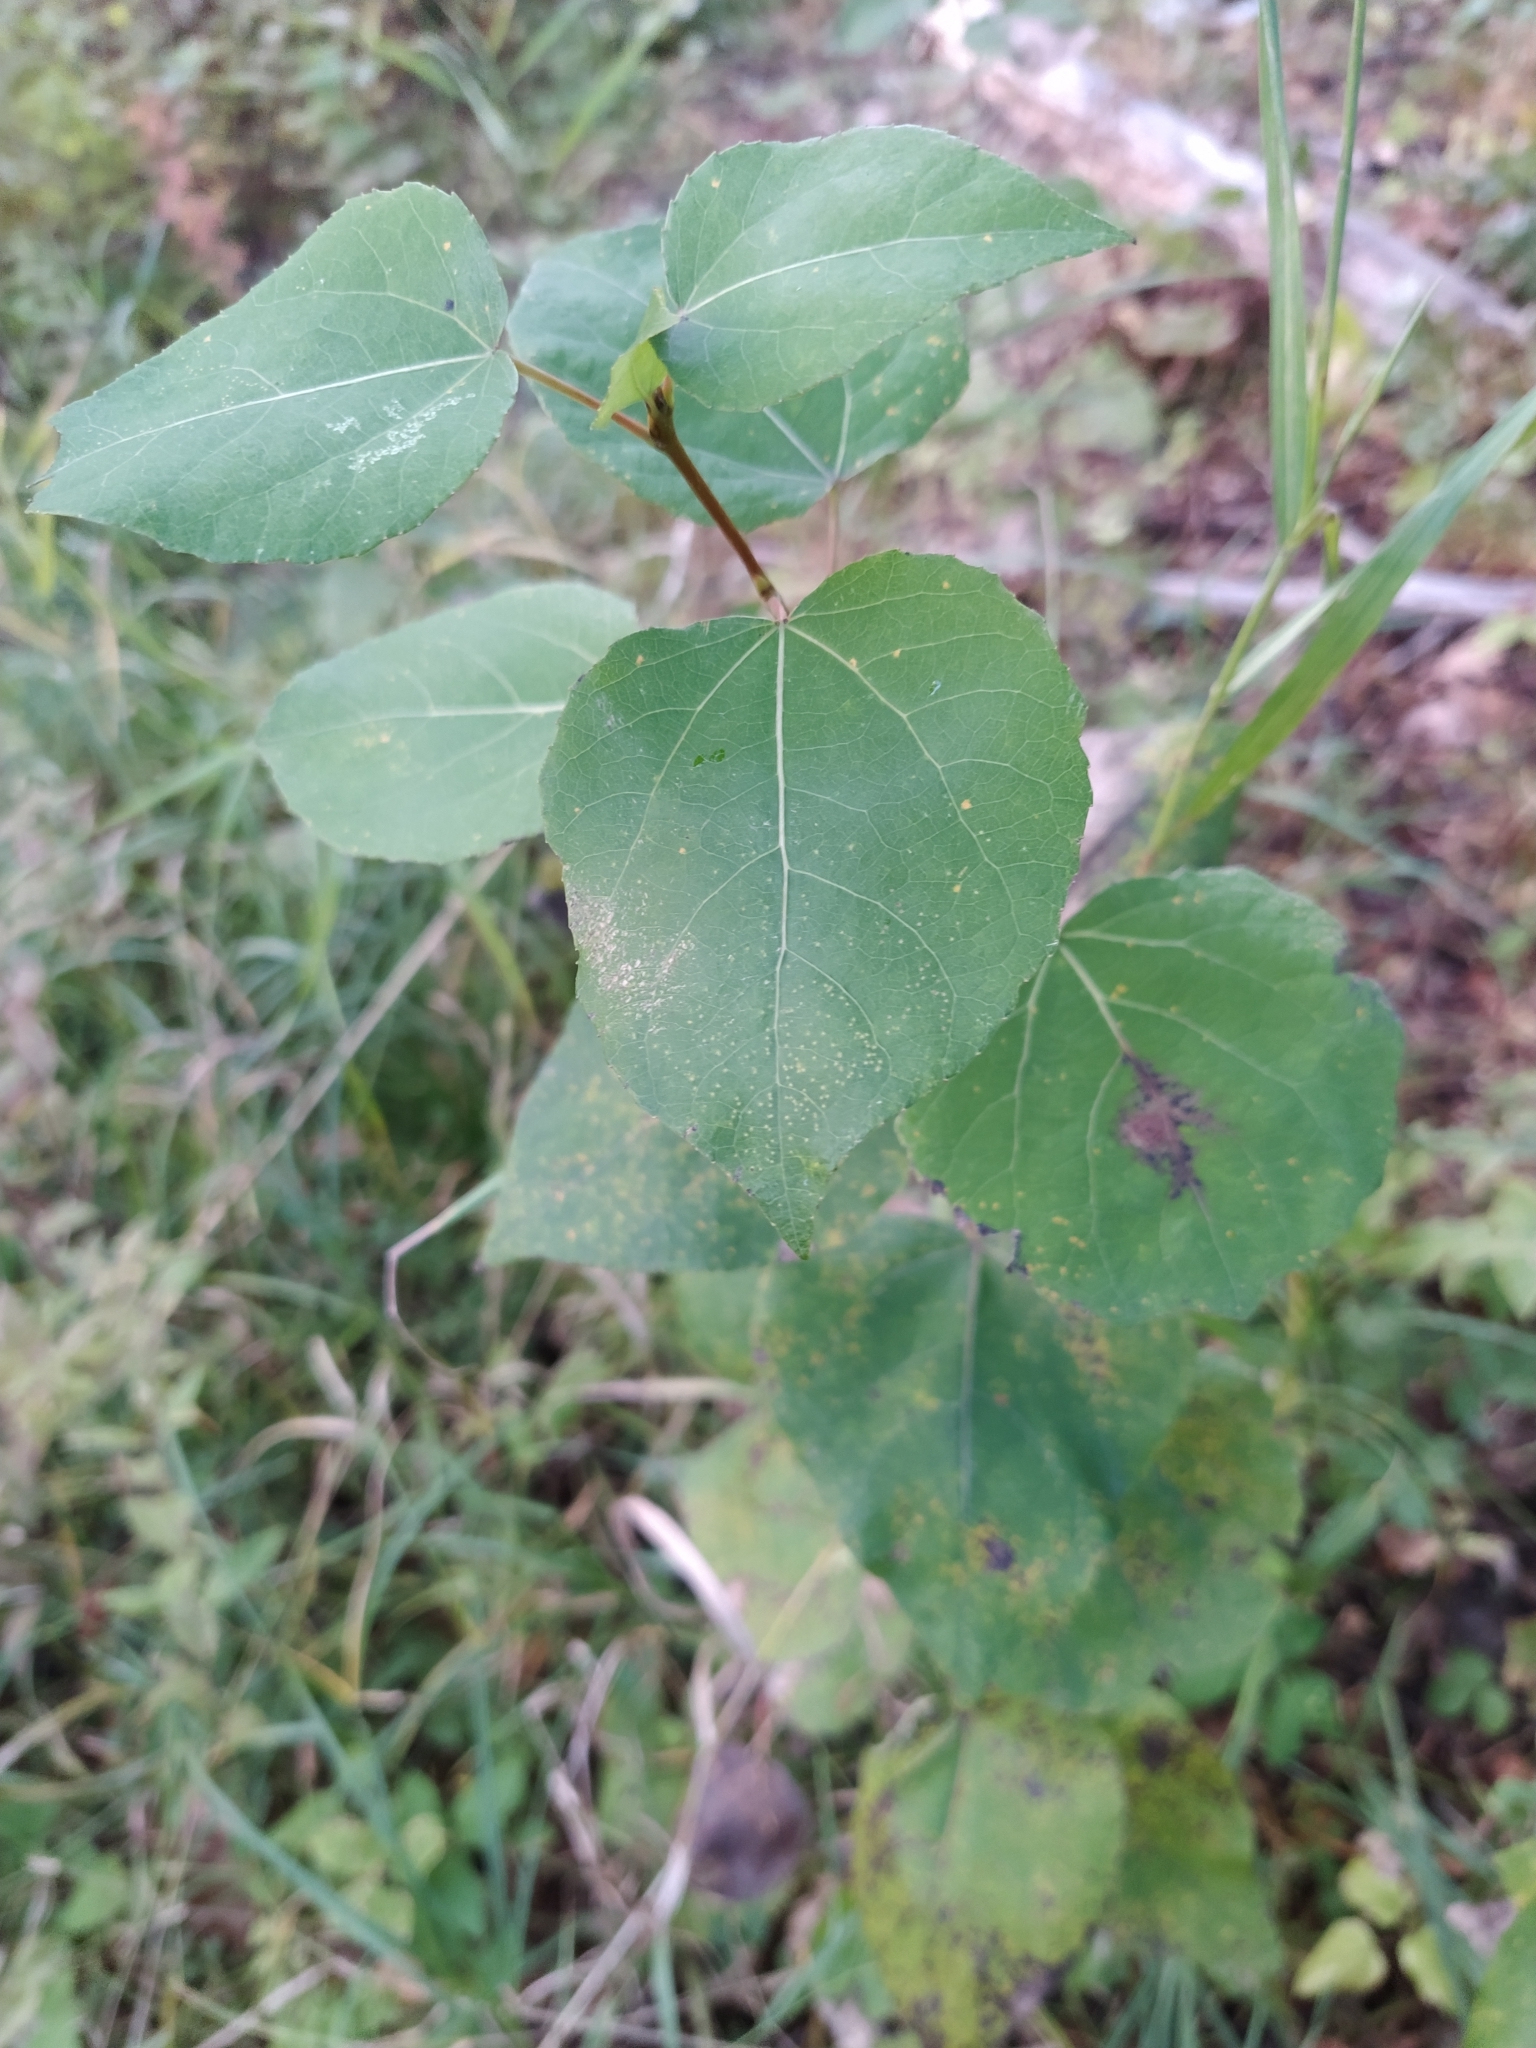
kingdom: Plantae
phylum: Tracheophyta
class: Magnoliopsida
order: Malpighiales
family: Salicaceae
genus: Populus
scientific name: Populus tremula
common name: European aspen
